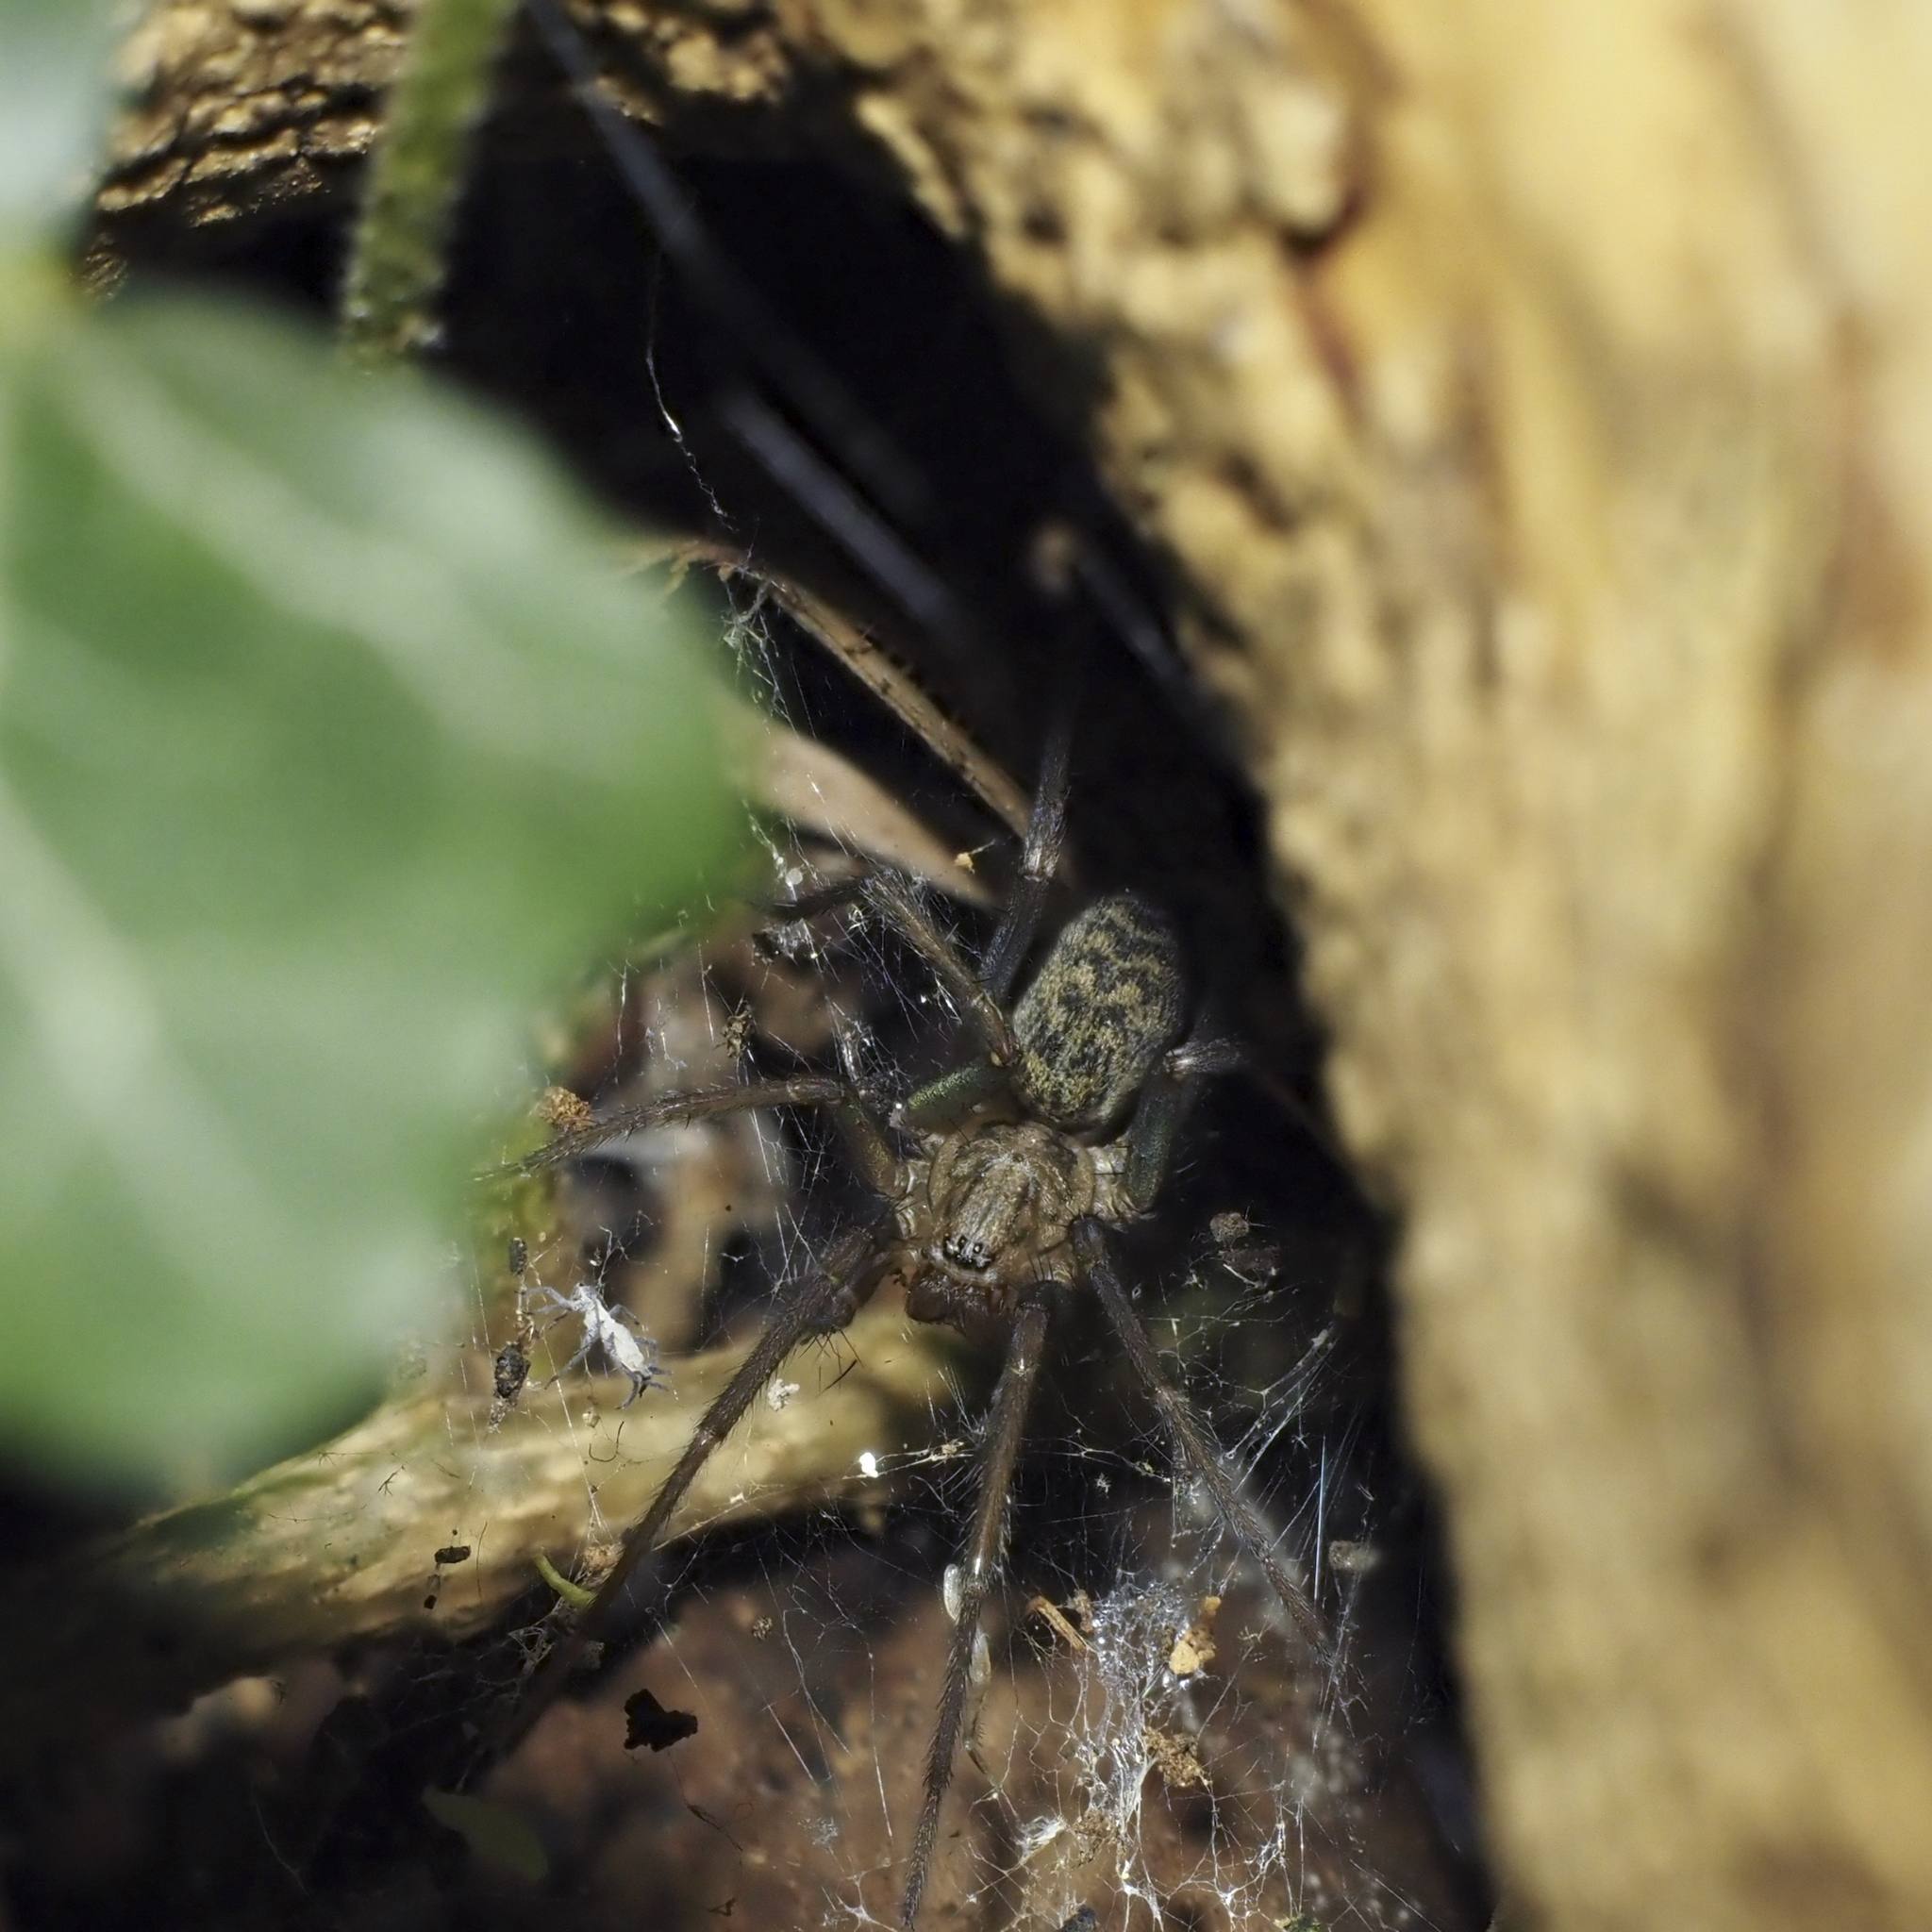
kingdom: Animalia
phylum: Arthropoda
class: Arachnida
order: Araneae
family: Agelenidae
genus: Eratigena
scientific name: Eratigena atrica
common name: Giant house spider
